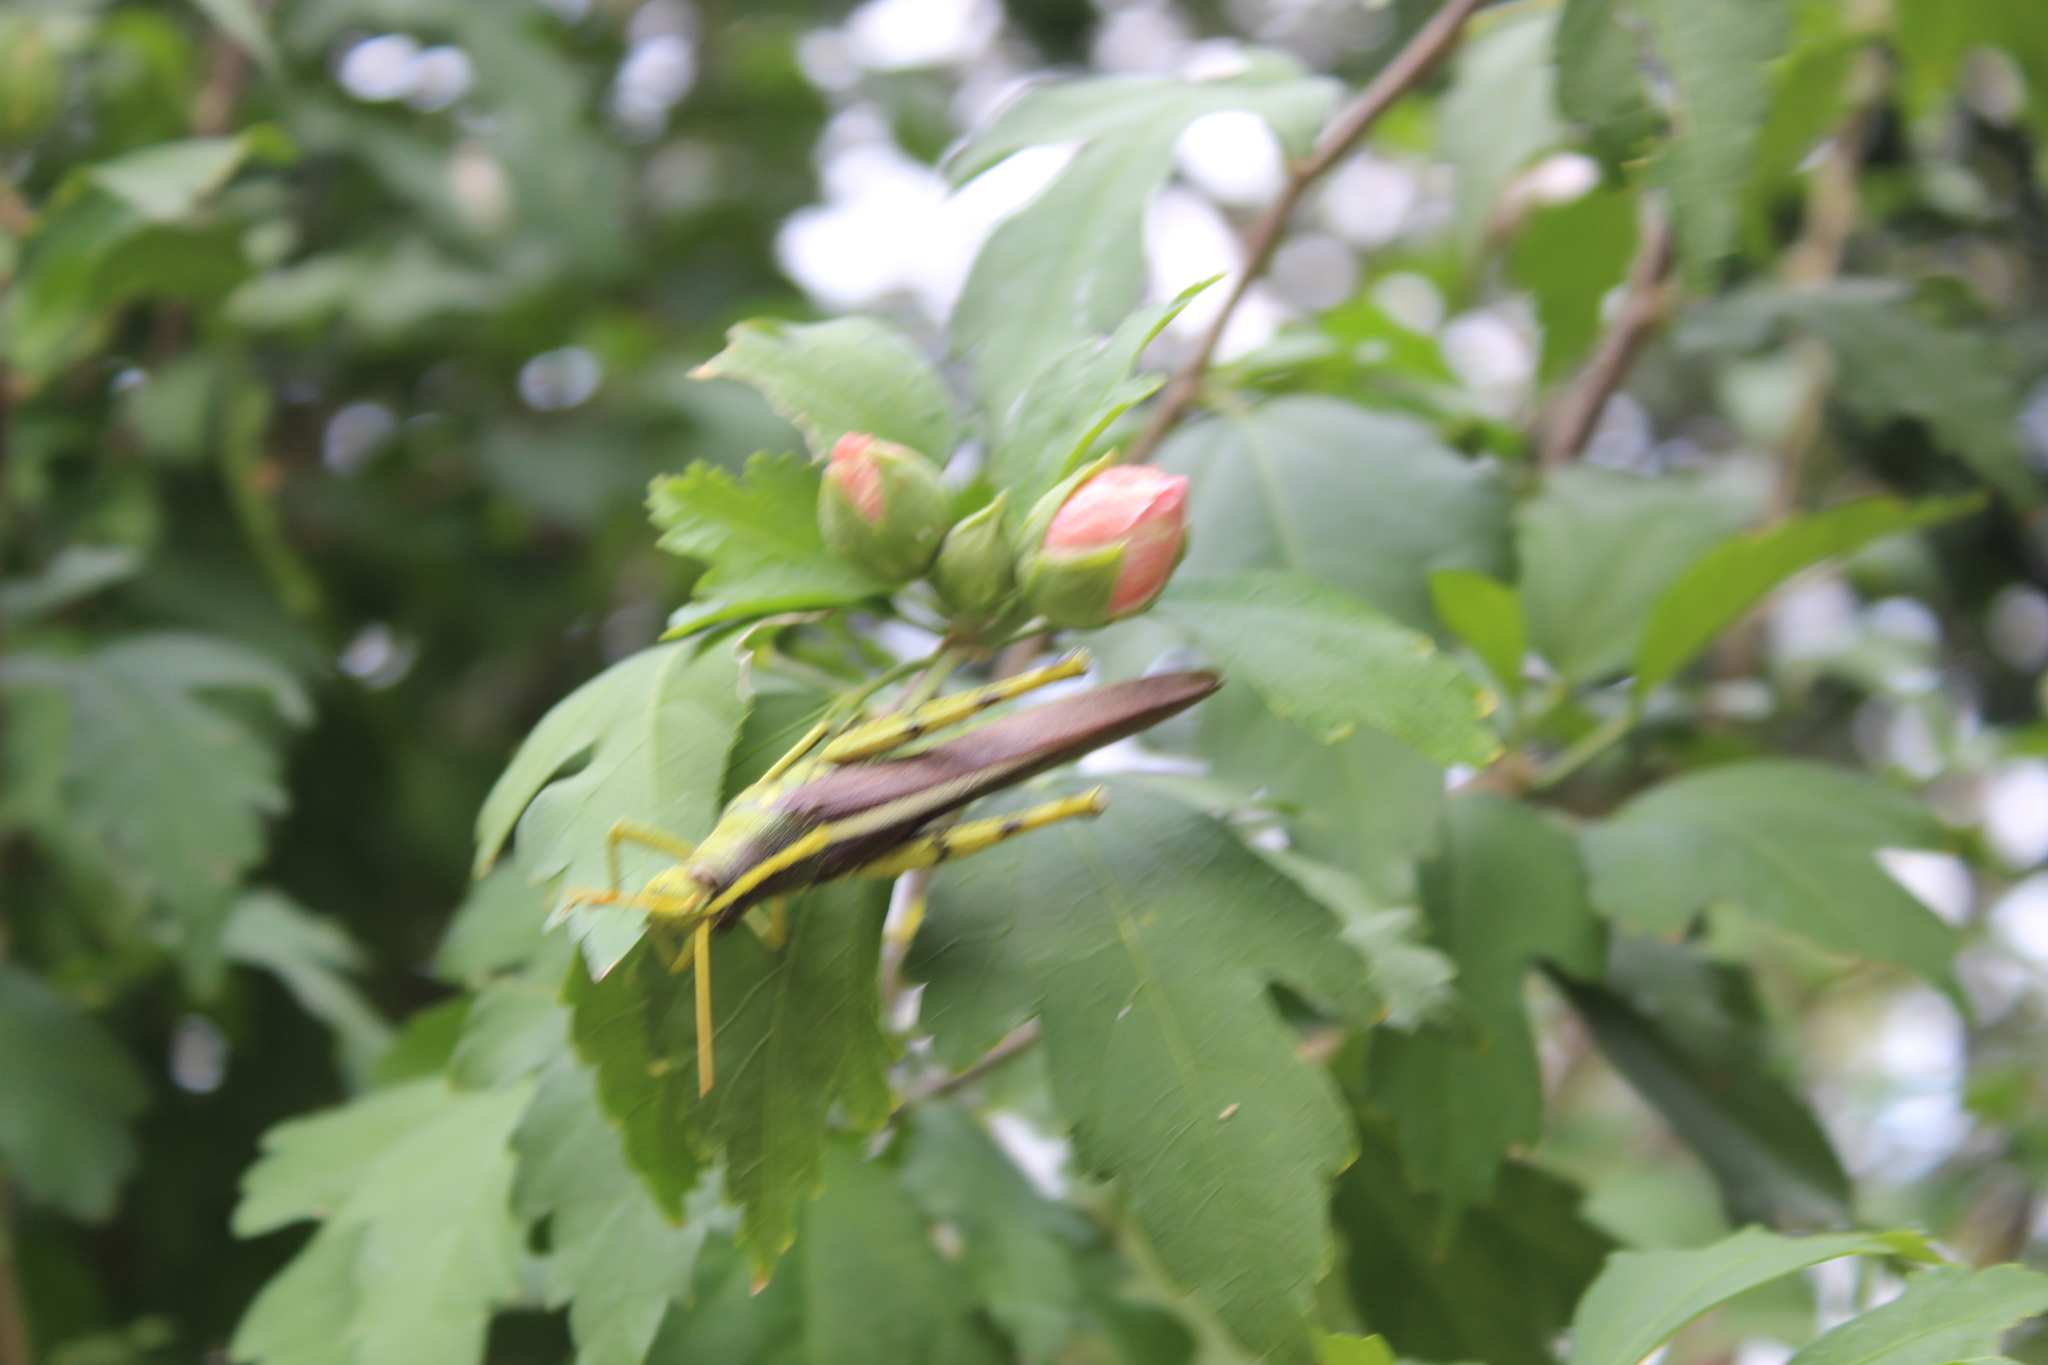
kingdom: Animalia
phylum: Arthropoda
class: Insecta
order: Orthoptera
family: Acrididae
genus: Schistocerca
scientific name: Schistocerca obscura
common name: Obscure bird grasshopper
